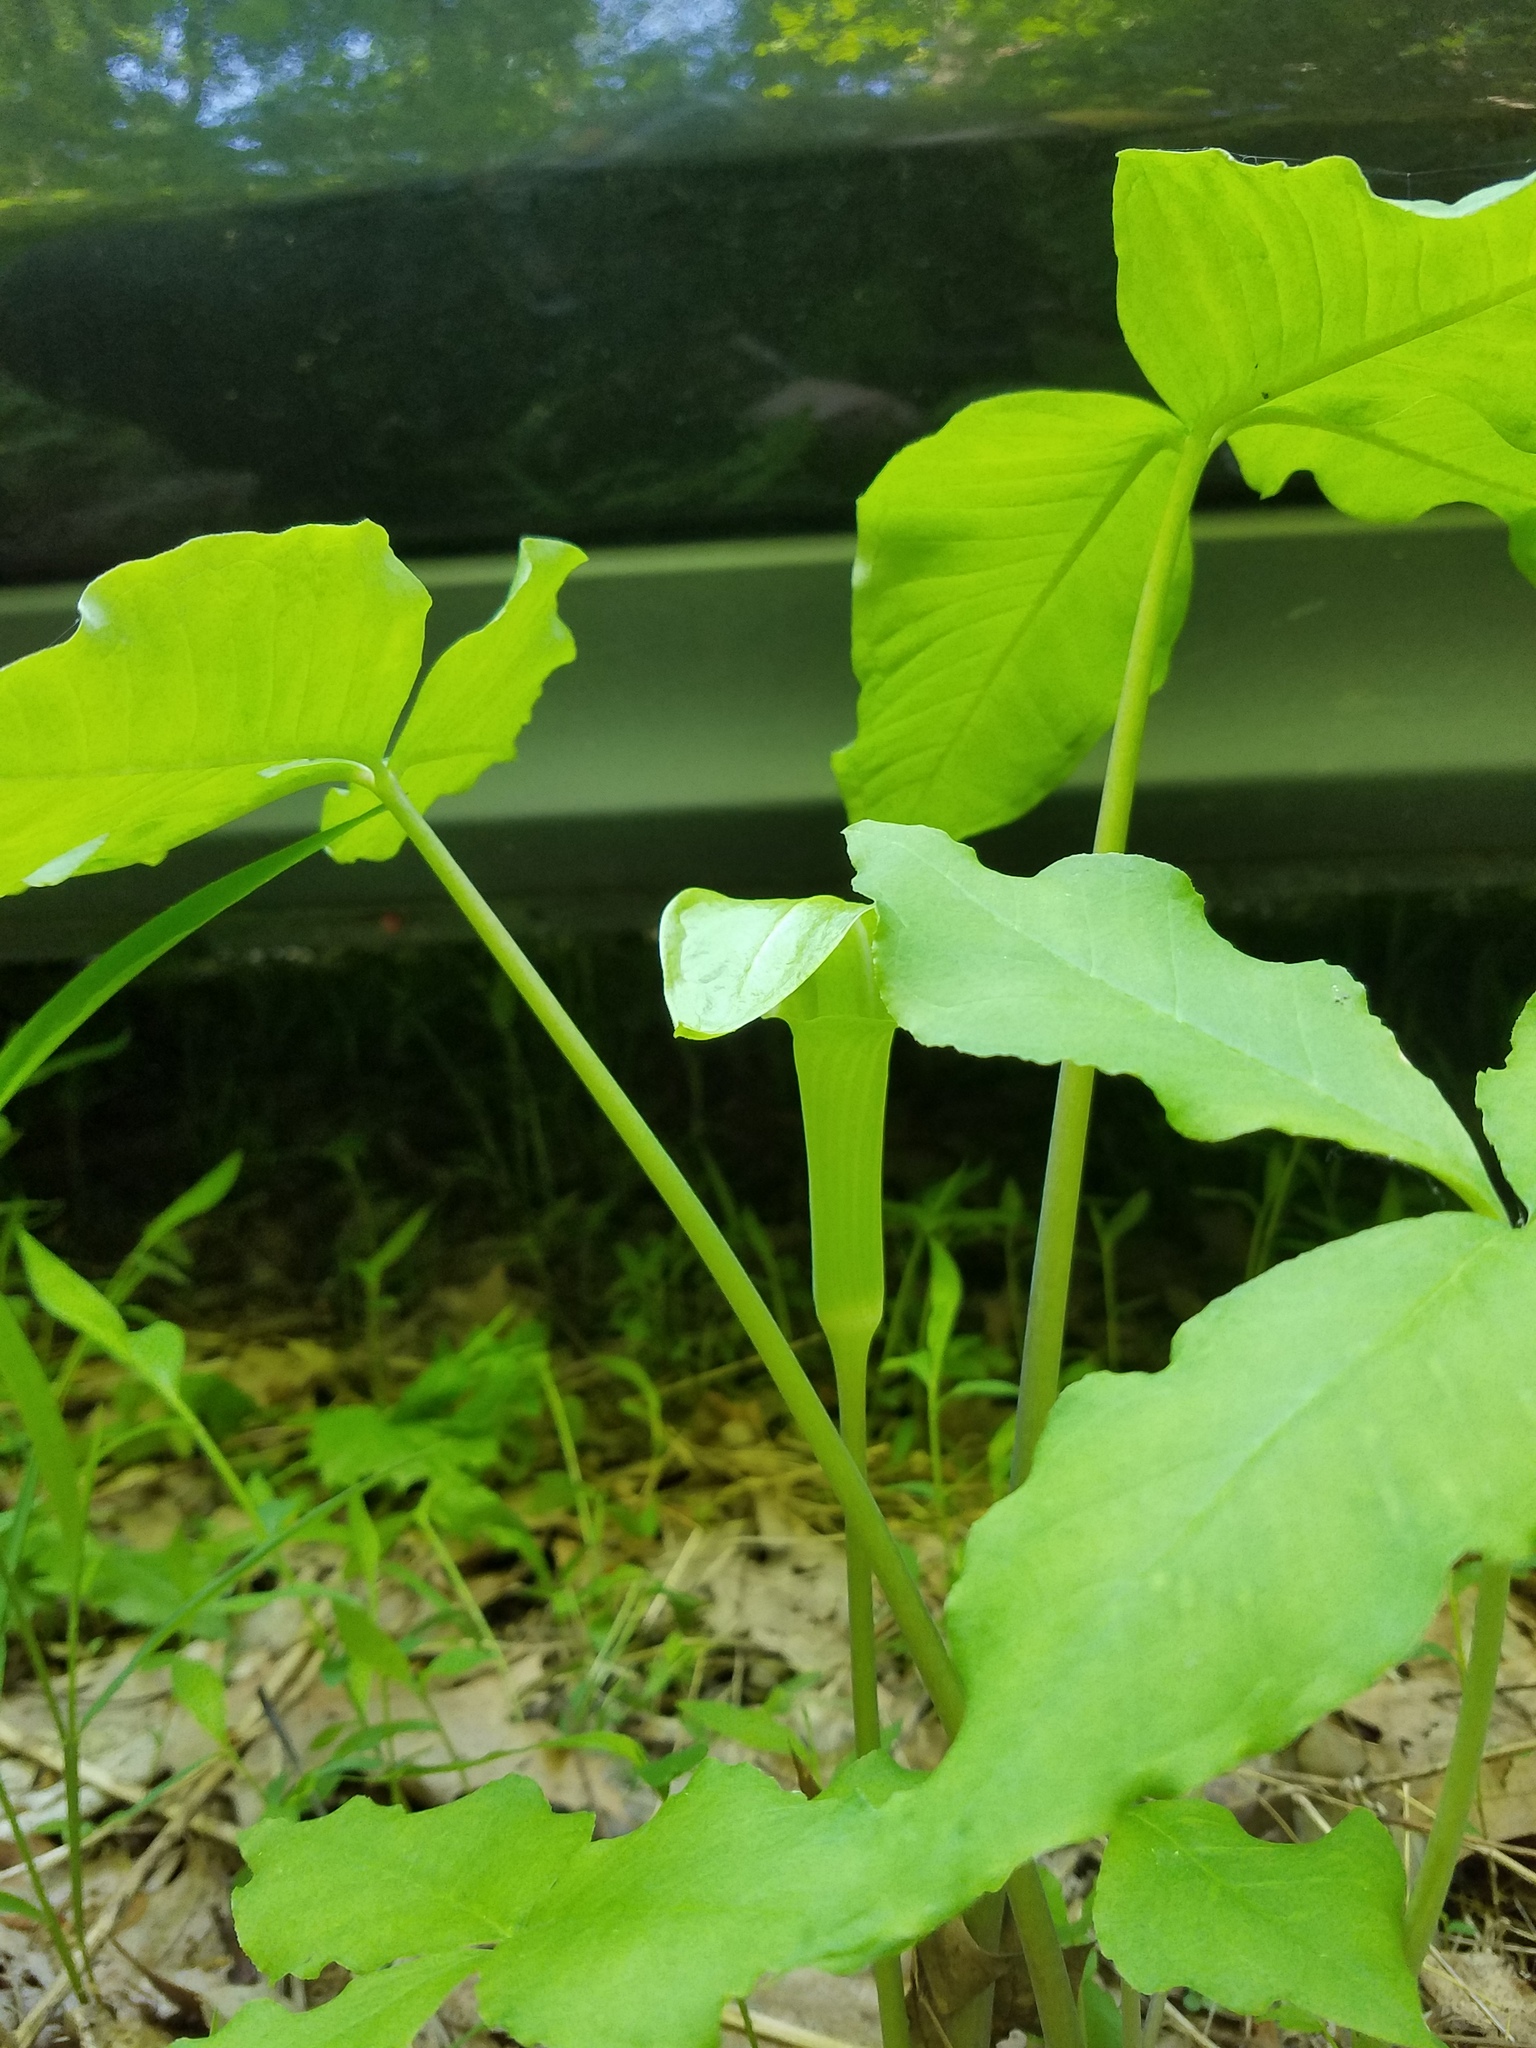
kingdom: Plantae
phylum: Tracheophyta
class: Liliopsida
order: Alismatales
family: Araceae
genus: Arisaema
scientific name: Arisaema triphyllum
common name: Jack-in-the-pulpit
